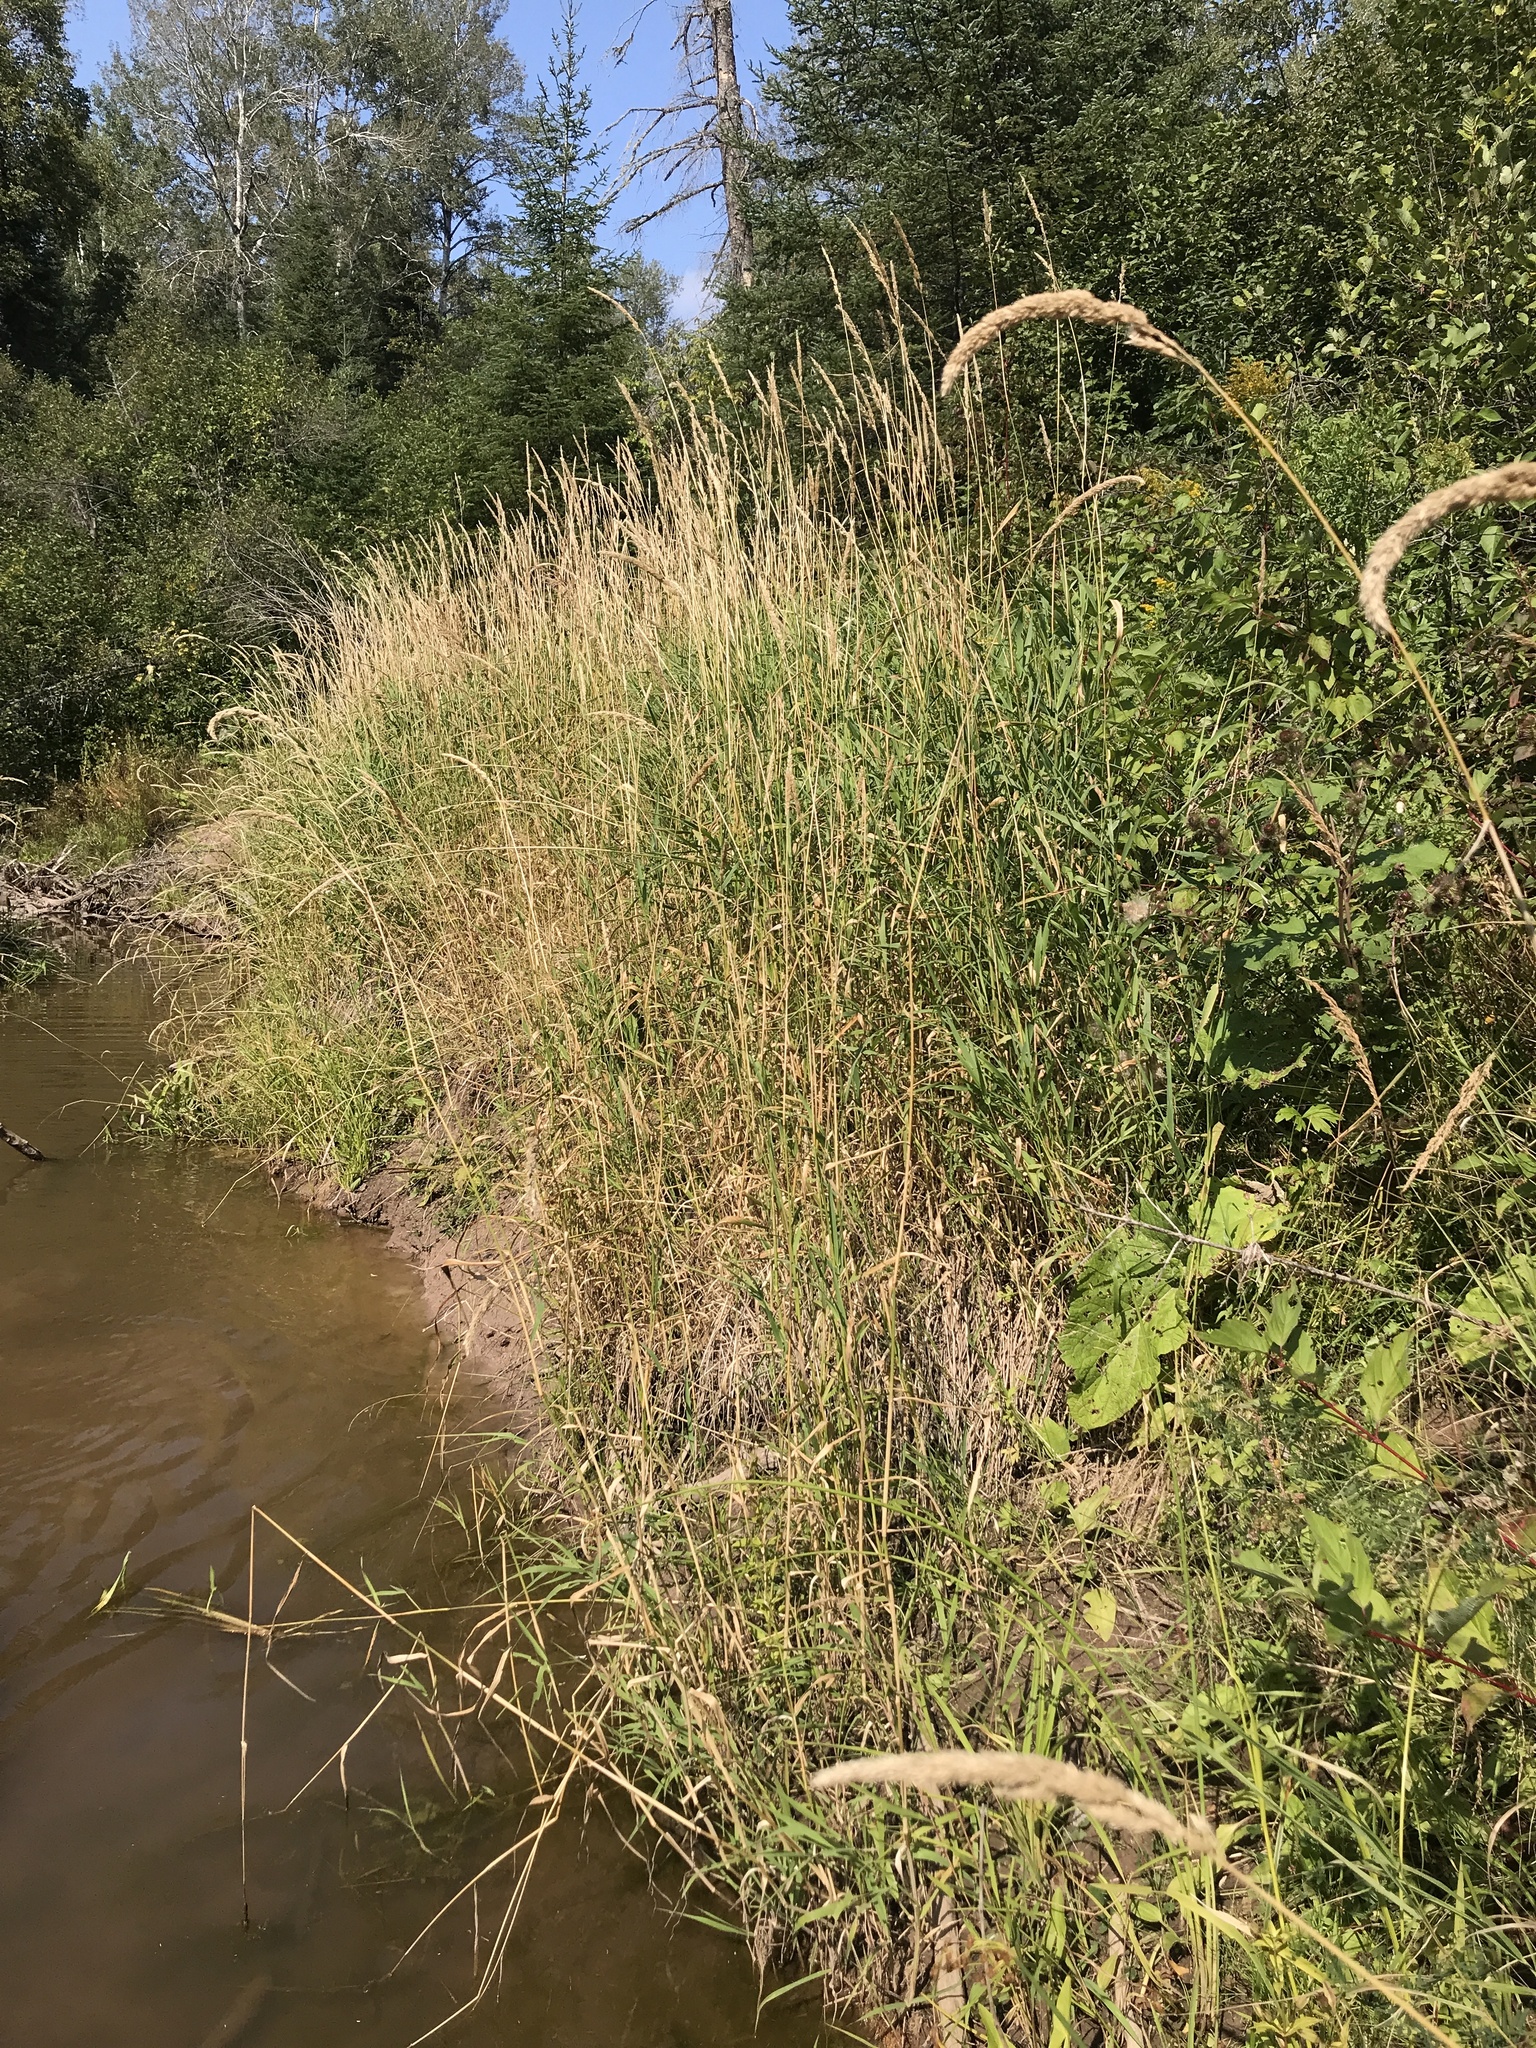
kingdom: Plantae
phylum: Tracheophyta
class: Liliopsida
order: Poales
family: Poaceae
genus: Phalaris
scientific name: Phalaris arundinacea
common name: Reed canary-grass
